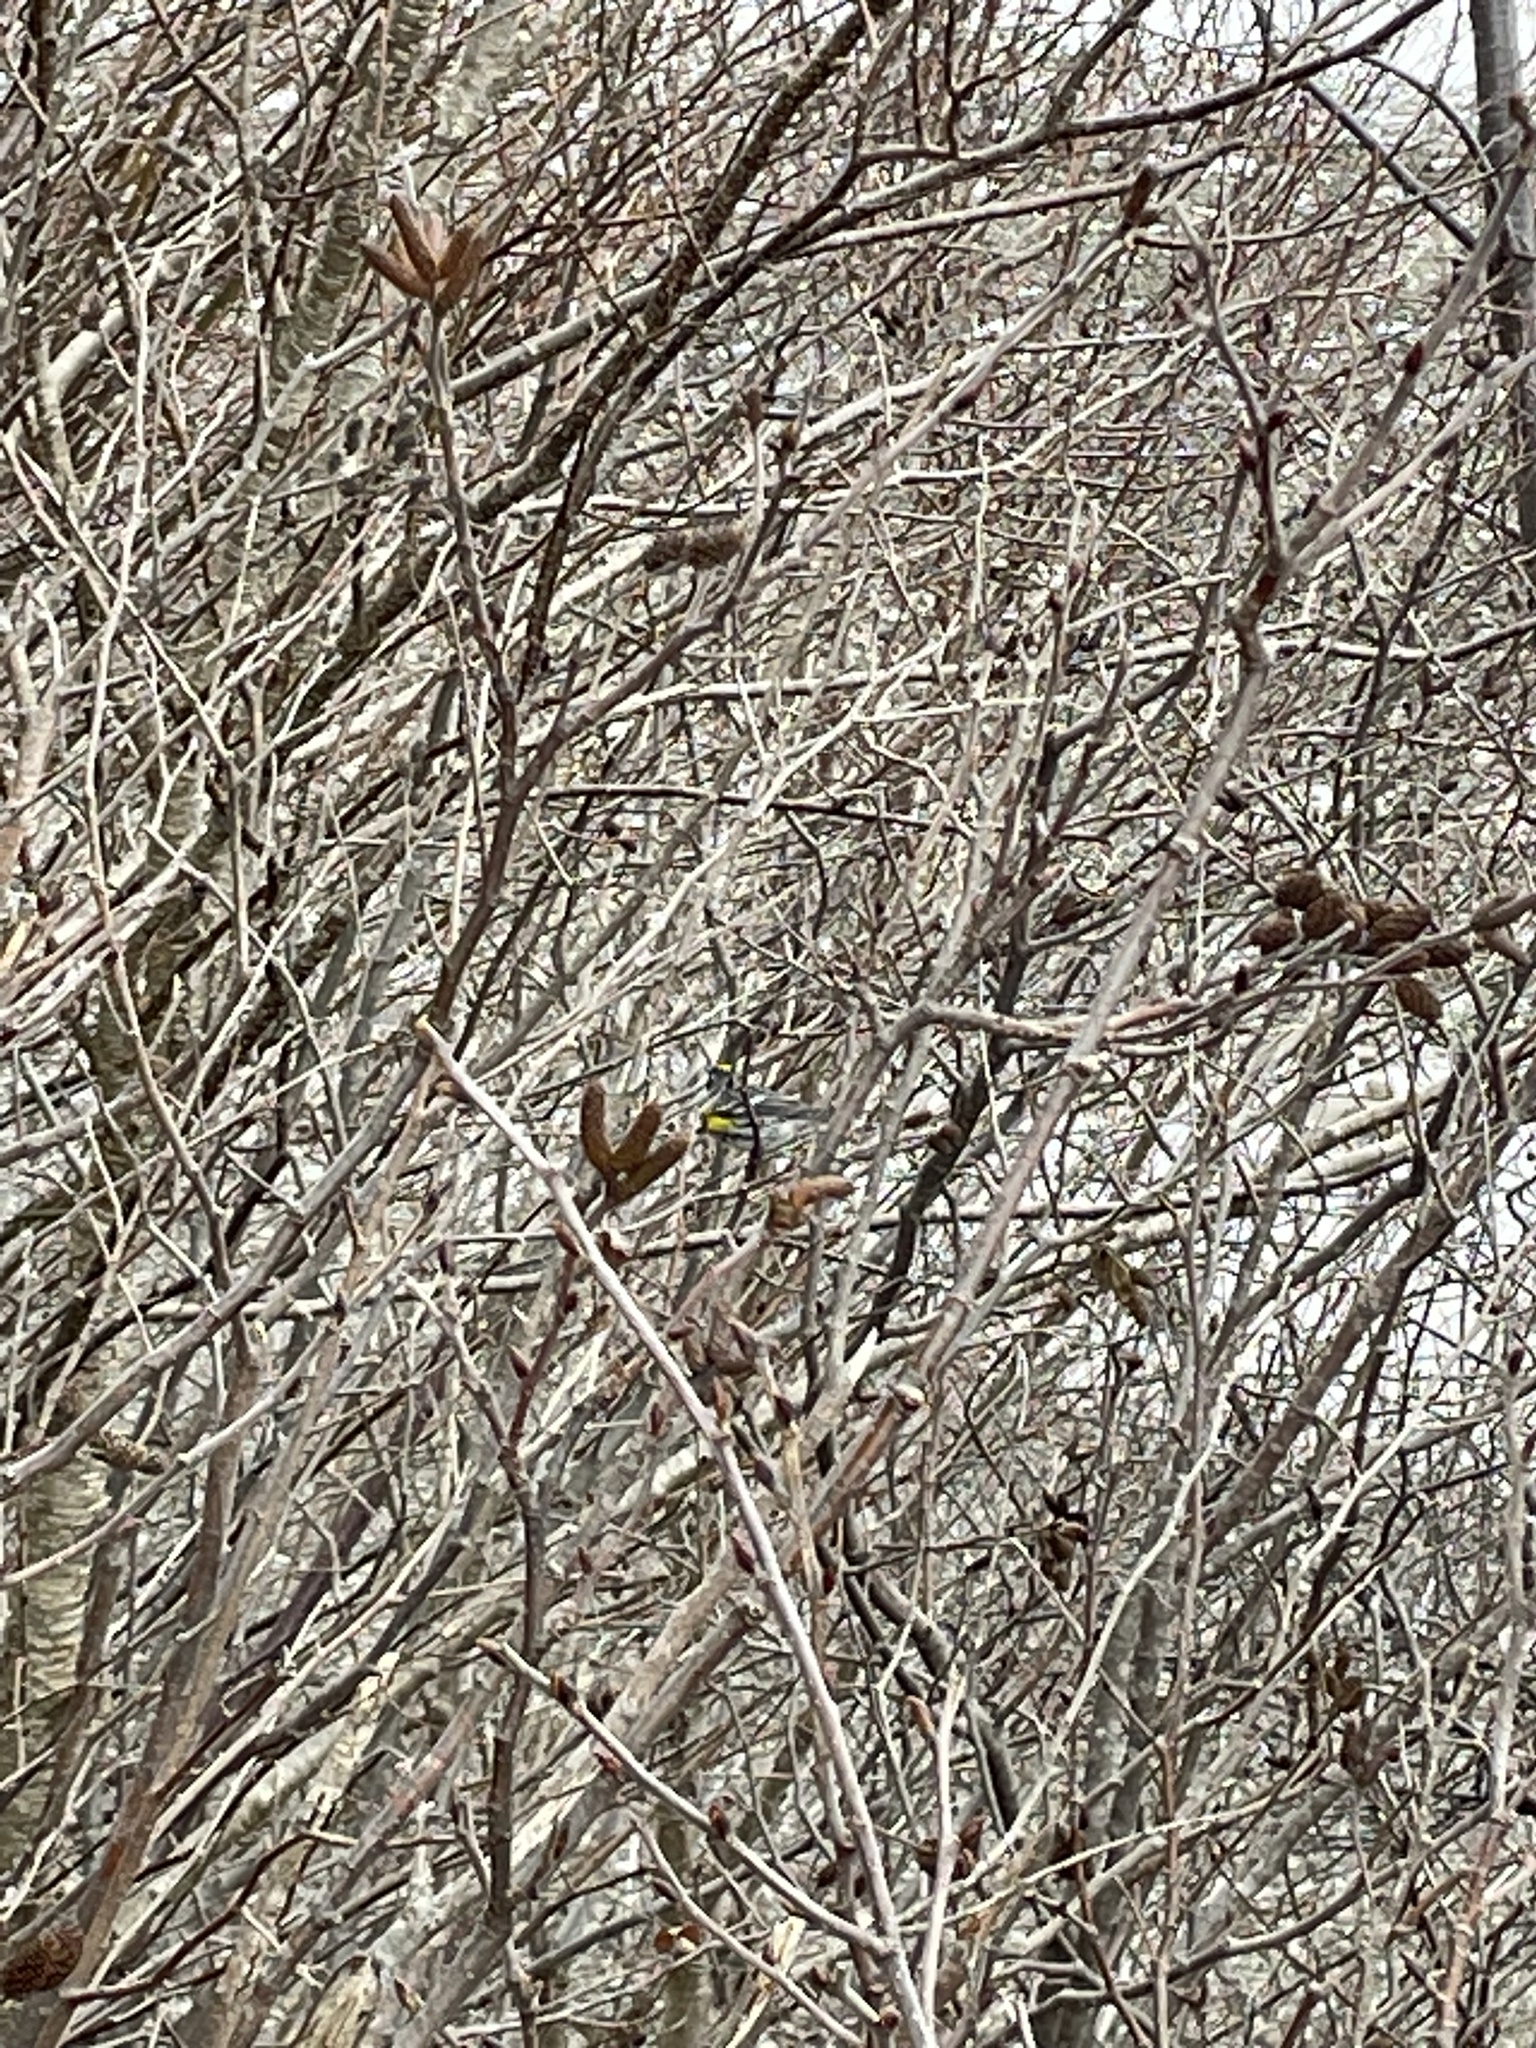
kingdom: Animalia
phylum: Chordata
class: Aves
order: Passeriformes
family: Parulidae
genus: Setophaga
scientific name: Setophaga coronata
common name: Myrtle warbler
